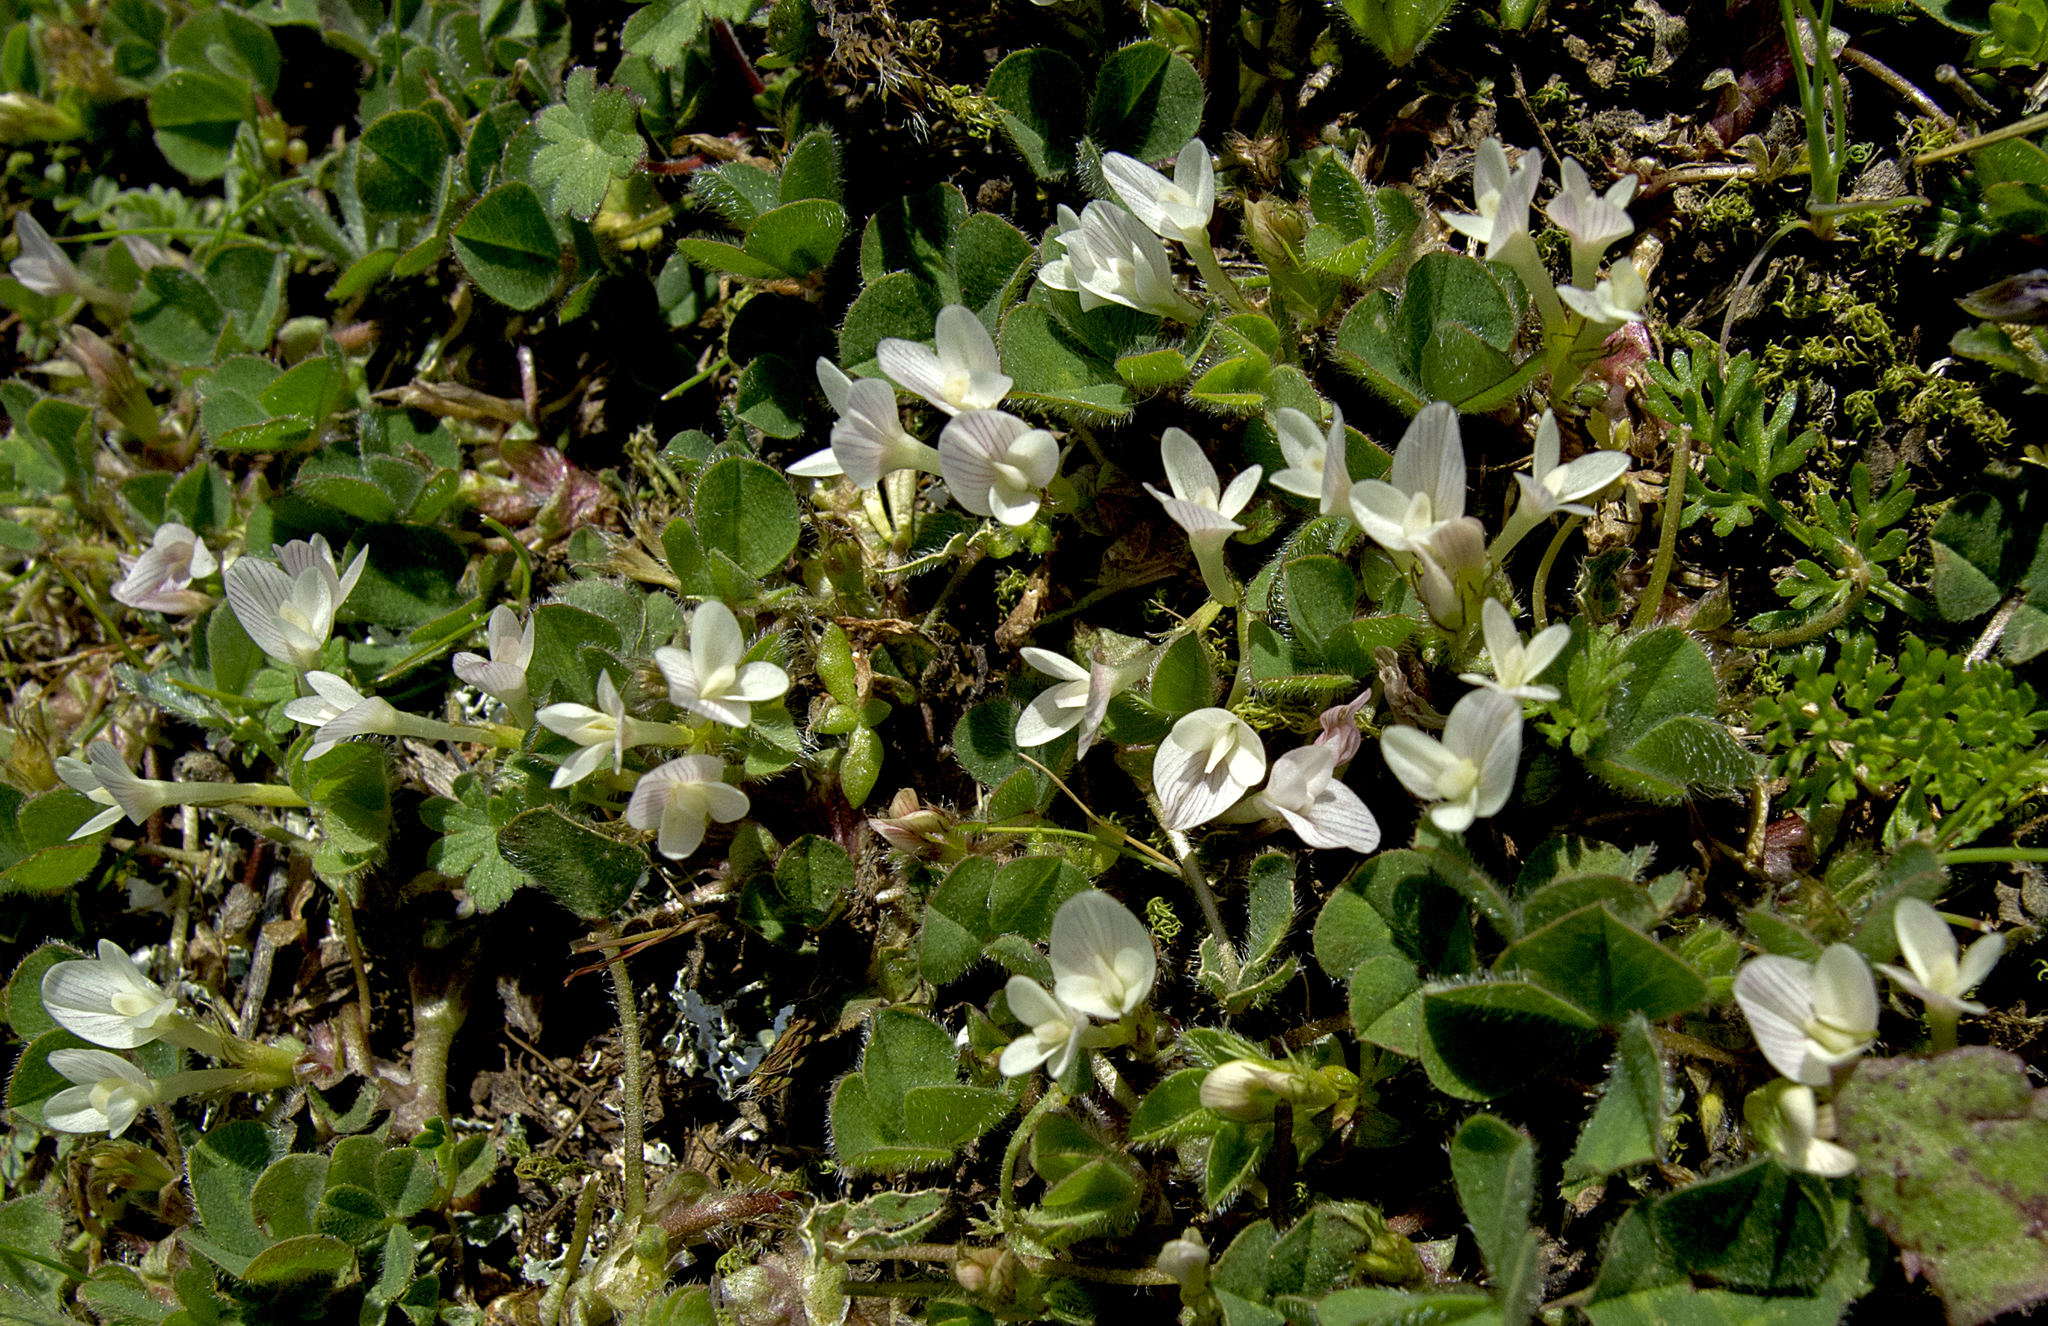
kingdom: Plantae
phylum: Tracheophyta
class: Magnoliopsida
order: Fabales
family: Fabaceae
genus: Trifolium
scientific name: Trifolium subterraneum
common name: Subterranean clover
